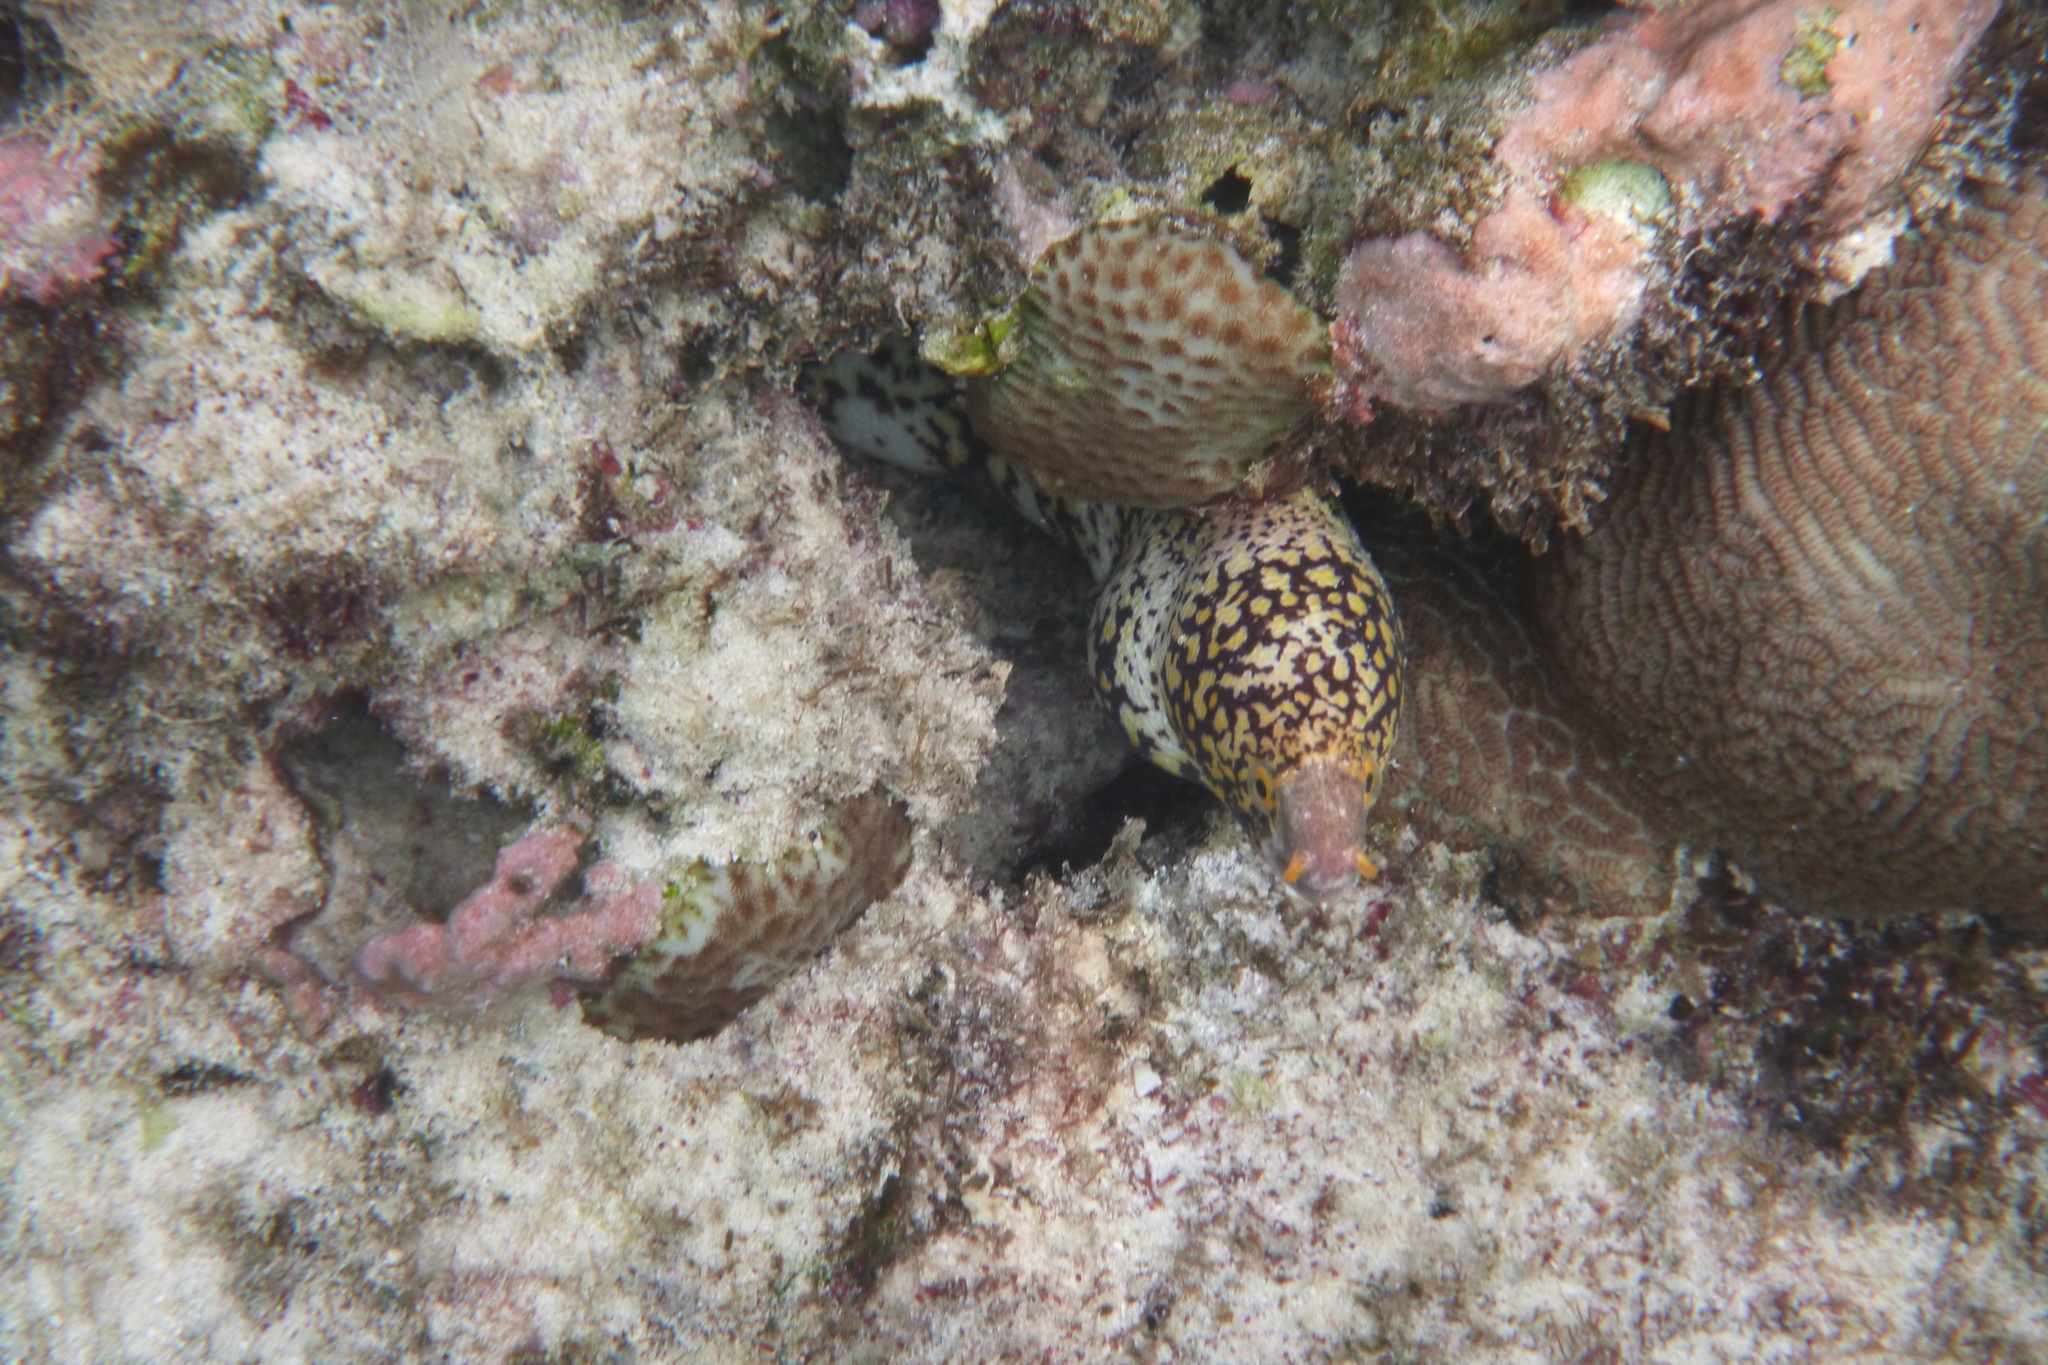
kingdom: Animalia
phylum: Chordata
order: Anguilliformes
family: Muraenidae
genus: Echidna
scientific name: Echidna nebulosa
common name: Snowflake moray
